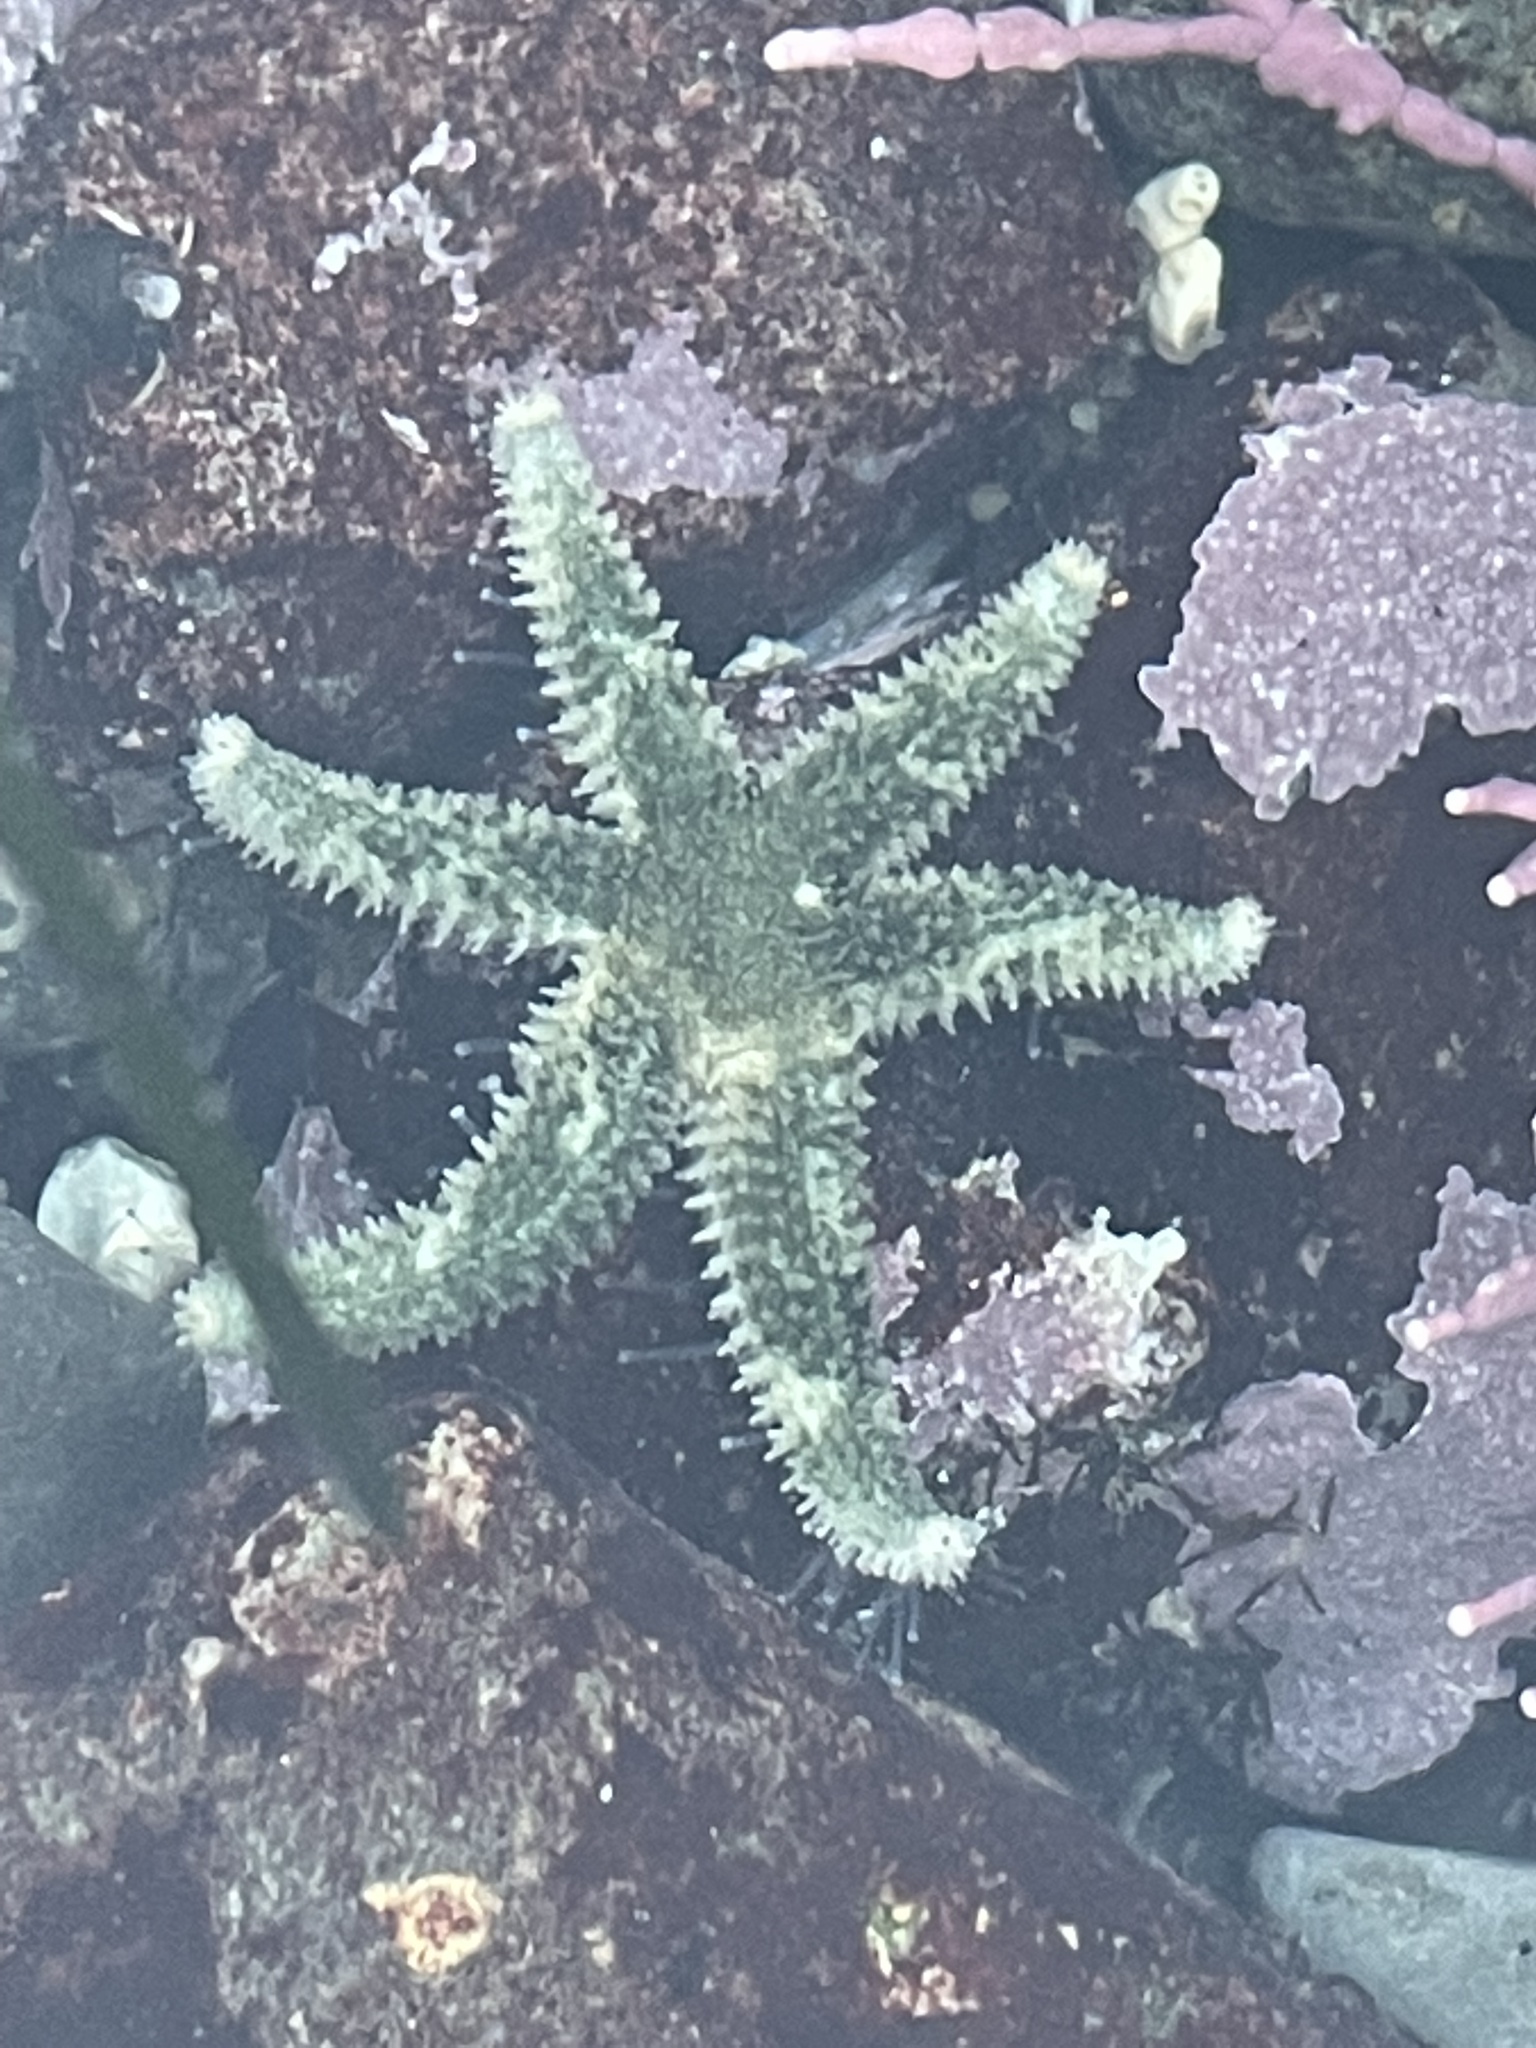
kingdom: Animalia
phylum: Echinodermata
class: Asteroidea
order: Forcipulatida
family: Asteriidae
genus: Leptasterias
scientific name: Leptasterias hexactis
